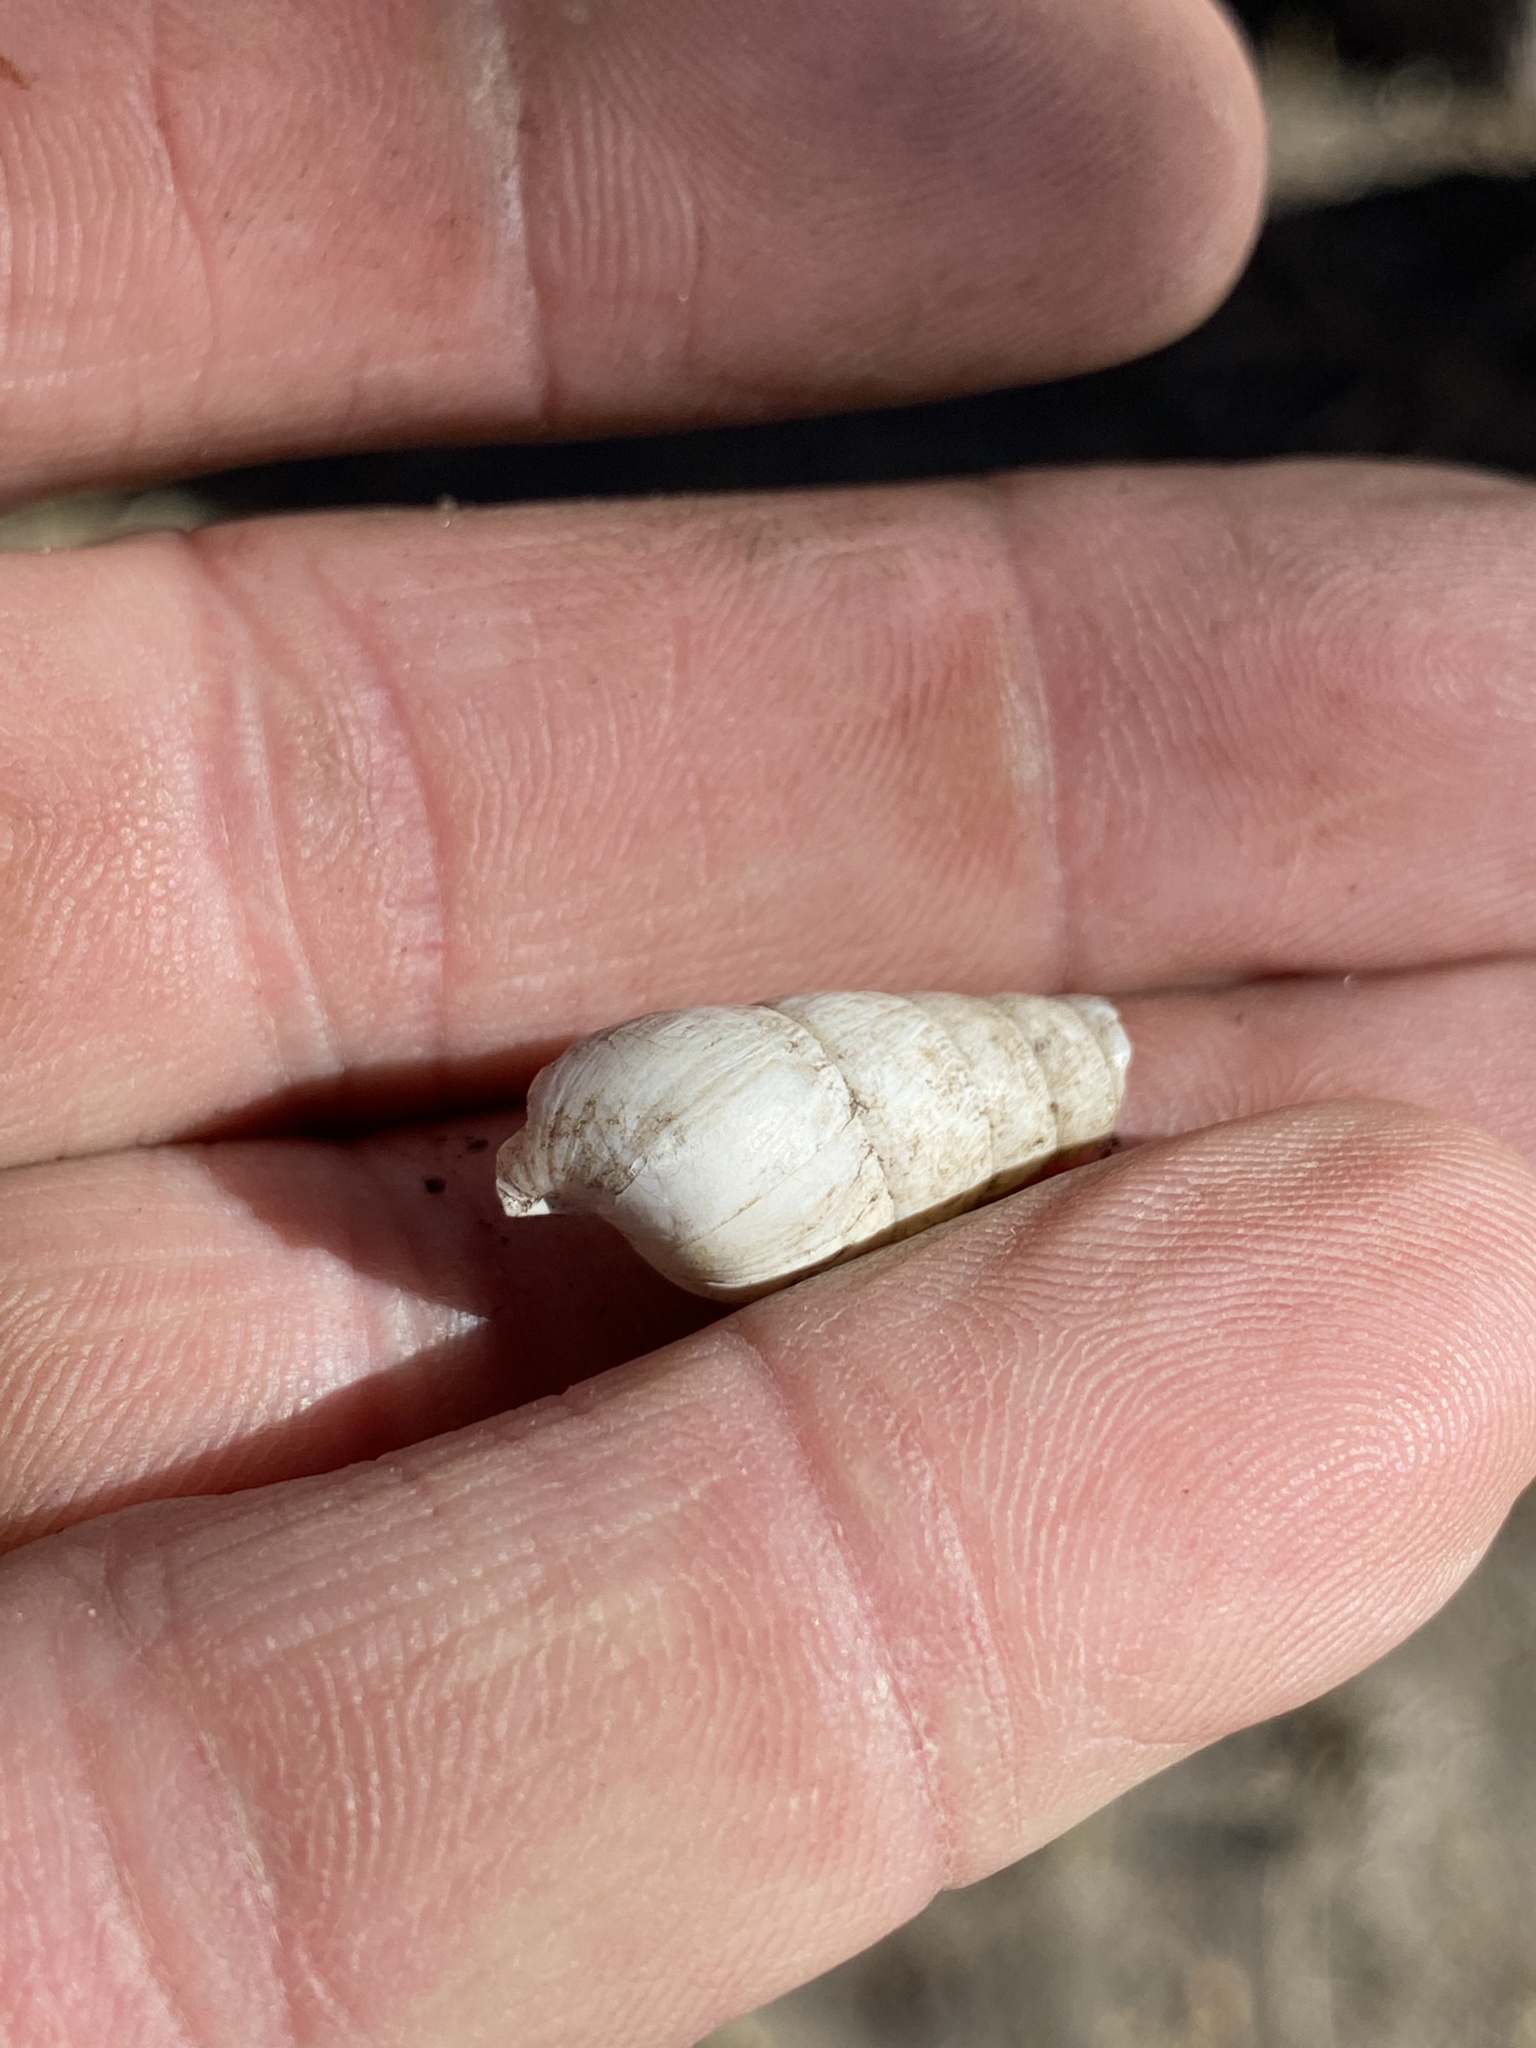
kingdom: Animalia
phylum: Mollusca
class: Gastropoda
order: Stylommatophora
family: Achatinidae
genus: Rumina
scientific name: Rumina decollata
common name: Decollate snail
